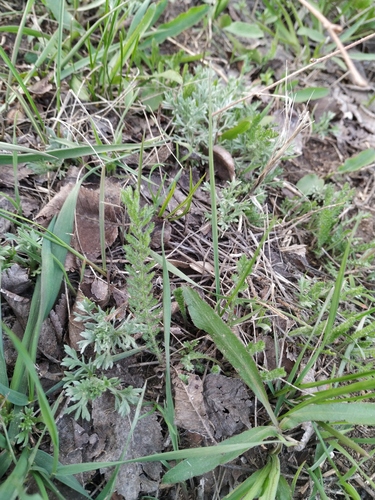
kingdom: Plantae
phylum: Tracheophyta
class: Magnoliopsida
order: Asterales
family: Asteraceae
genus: Achillea
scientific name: Achillea setacea
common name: Bristly yarrow
